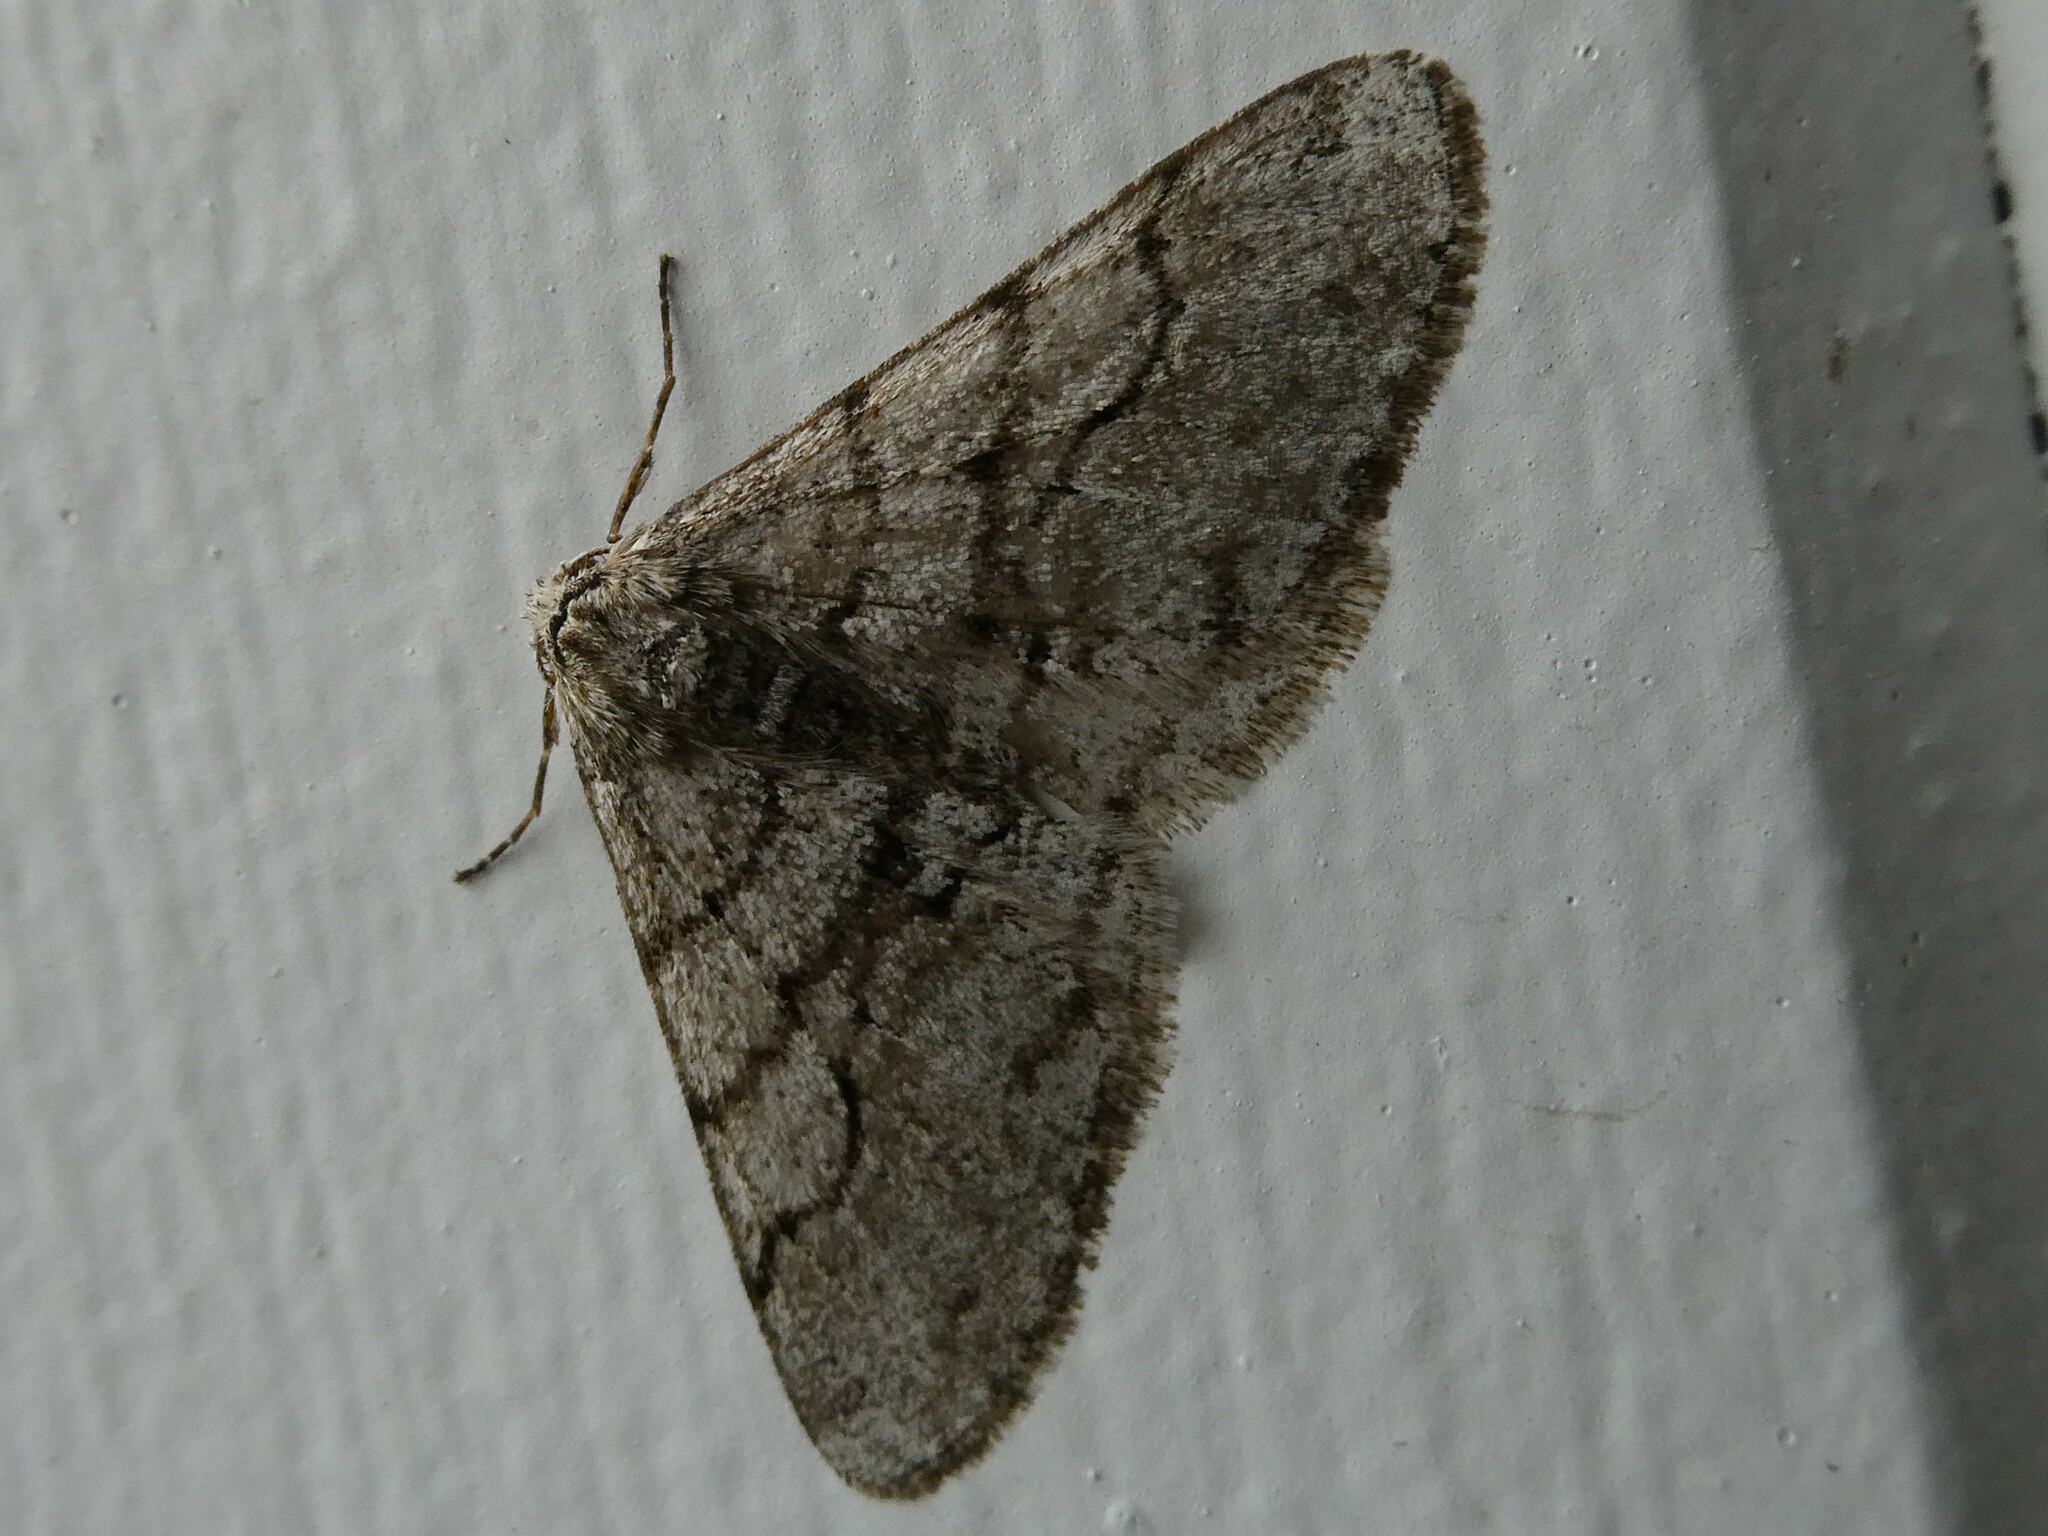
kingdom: Animalia
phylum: Arthropoda
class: Insecta
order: Lepidoptera
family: Geometridae
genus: Phigalia
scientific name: Phigalia titea
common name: Spiny looper
